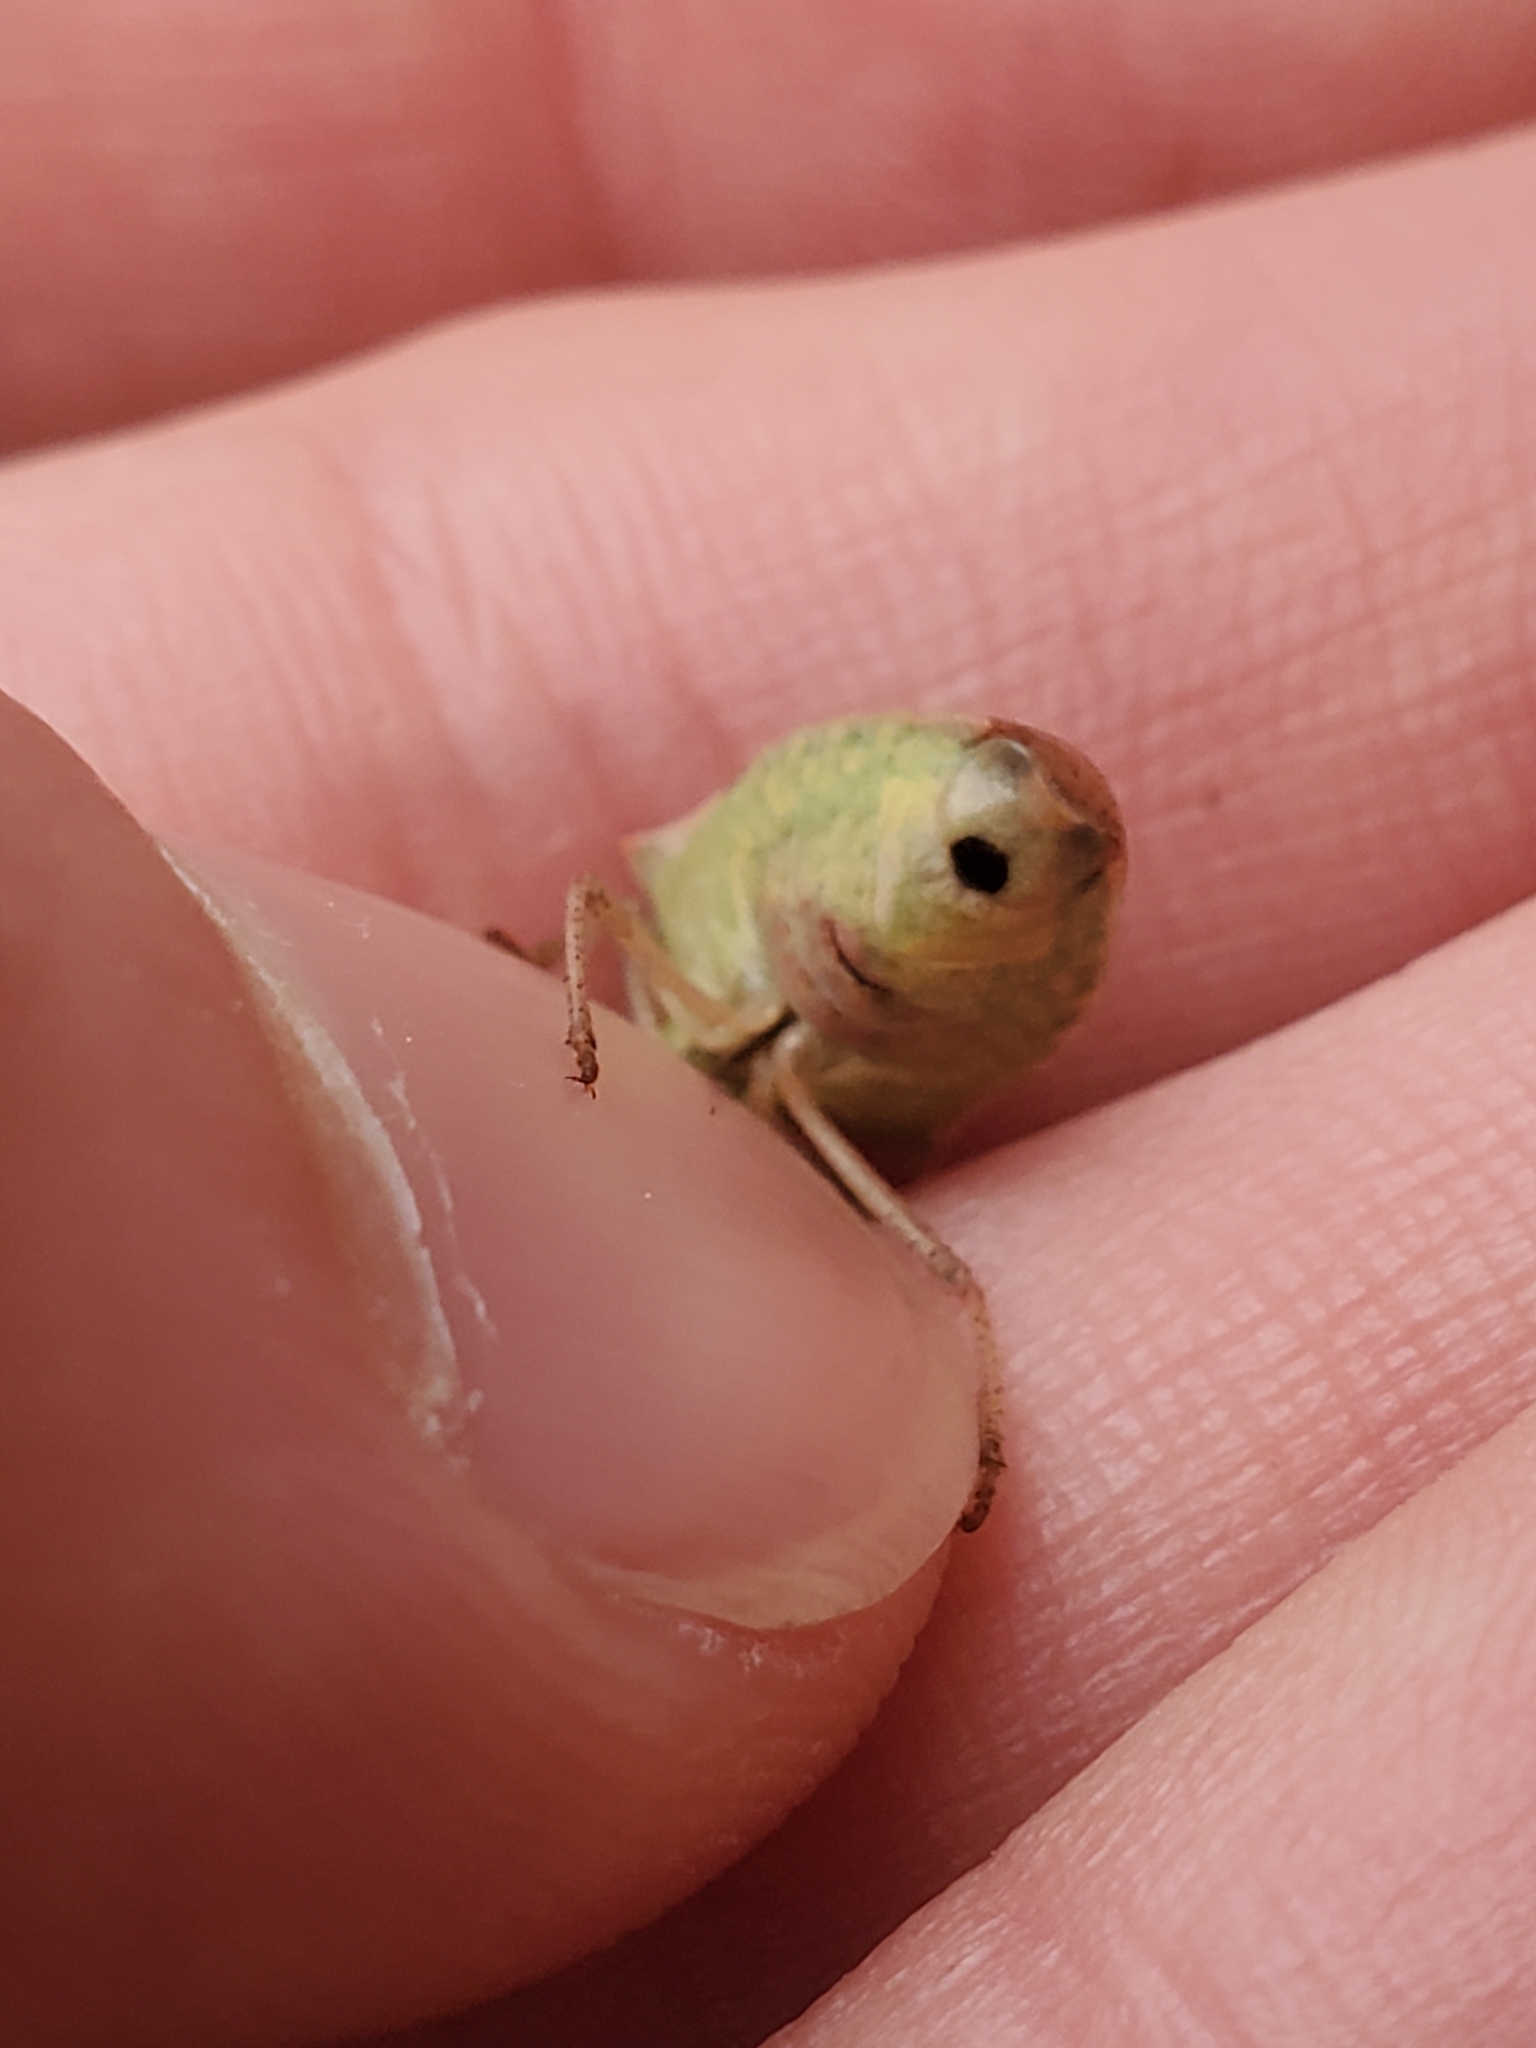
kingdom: Animalia
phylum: Arthropoda
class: Insecta
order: Hemiptera
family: Pentatomidae
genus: Euschistus
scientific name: Euschistus variolarius
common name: Onespotted stink bug
